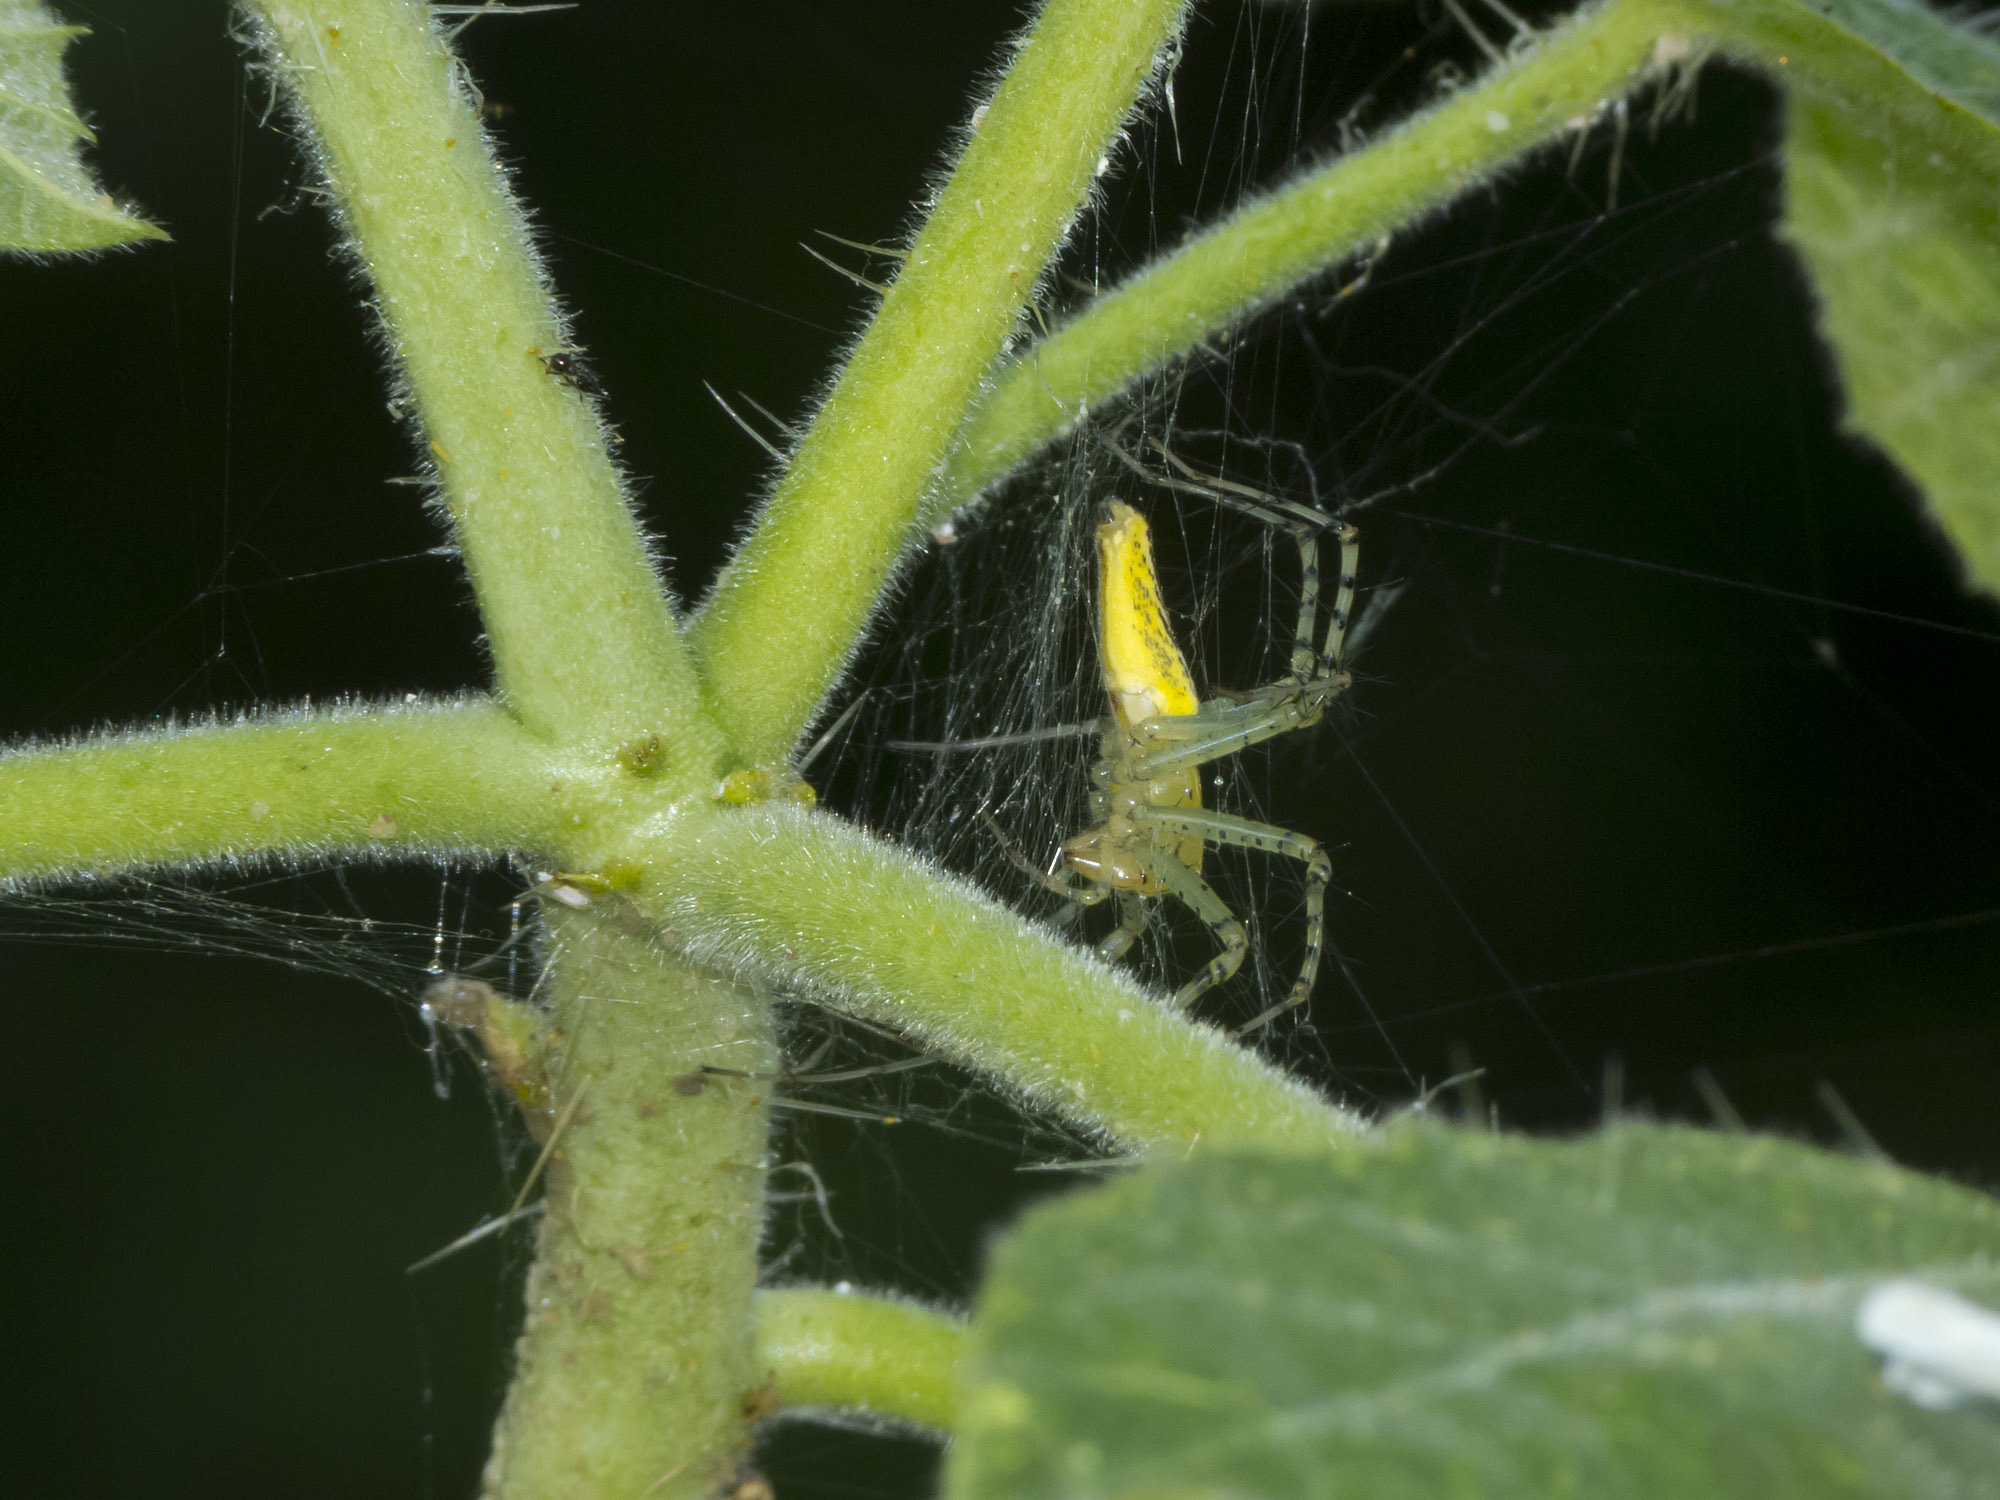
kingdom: Animalia
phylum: Arthropoda
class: Arachnida
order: Araneae
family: Oxyopidae
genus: Peucetia
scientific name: Peucetia rubrolineata
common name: Lynx spiders
